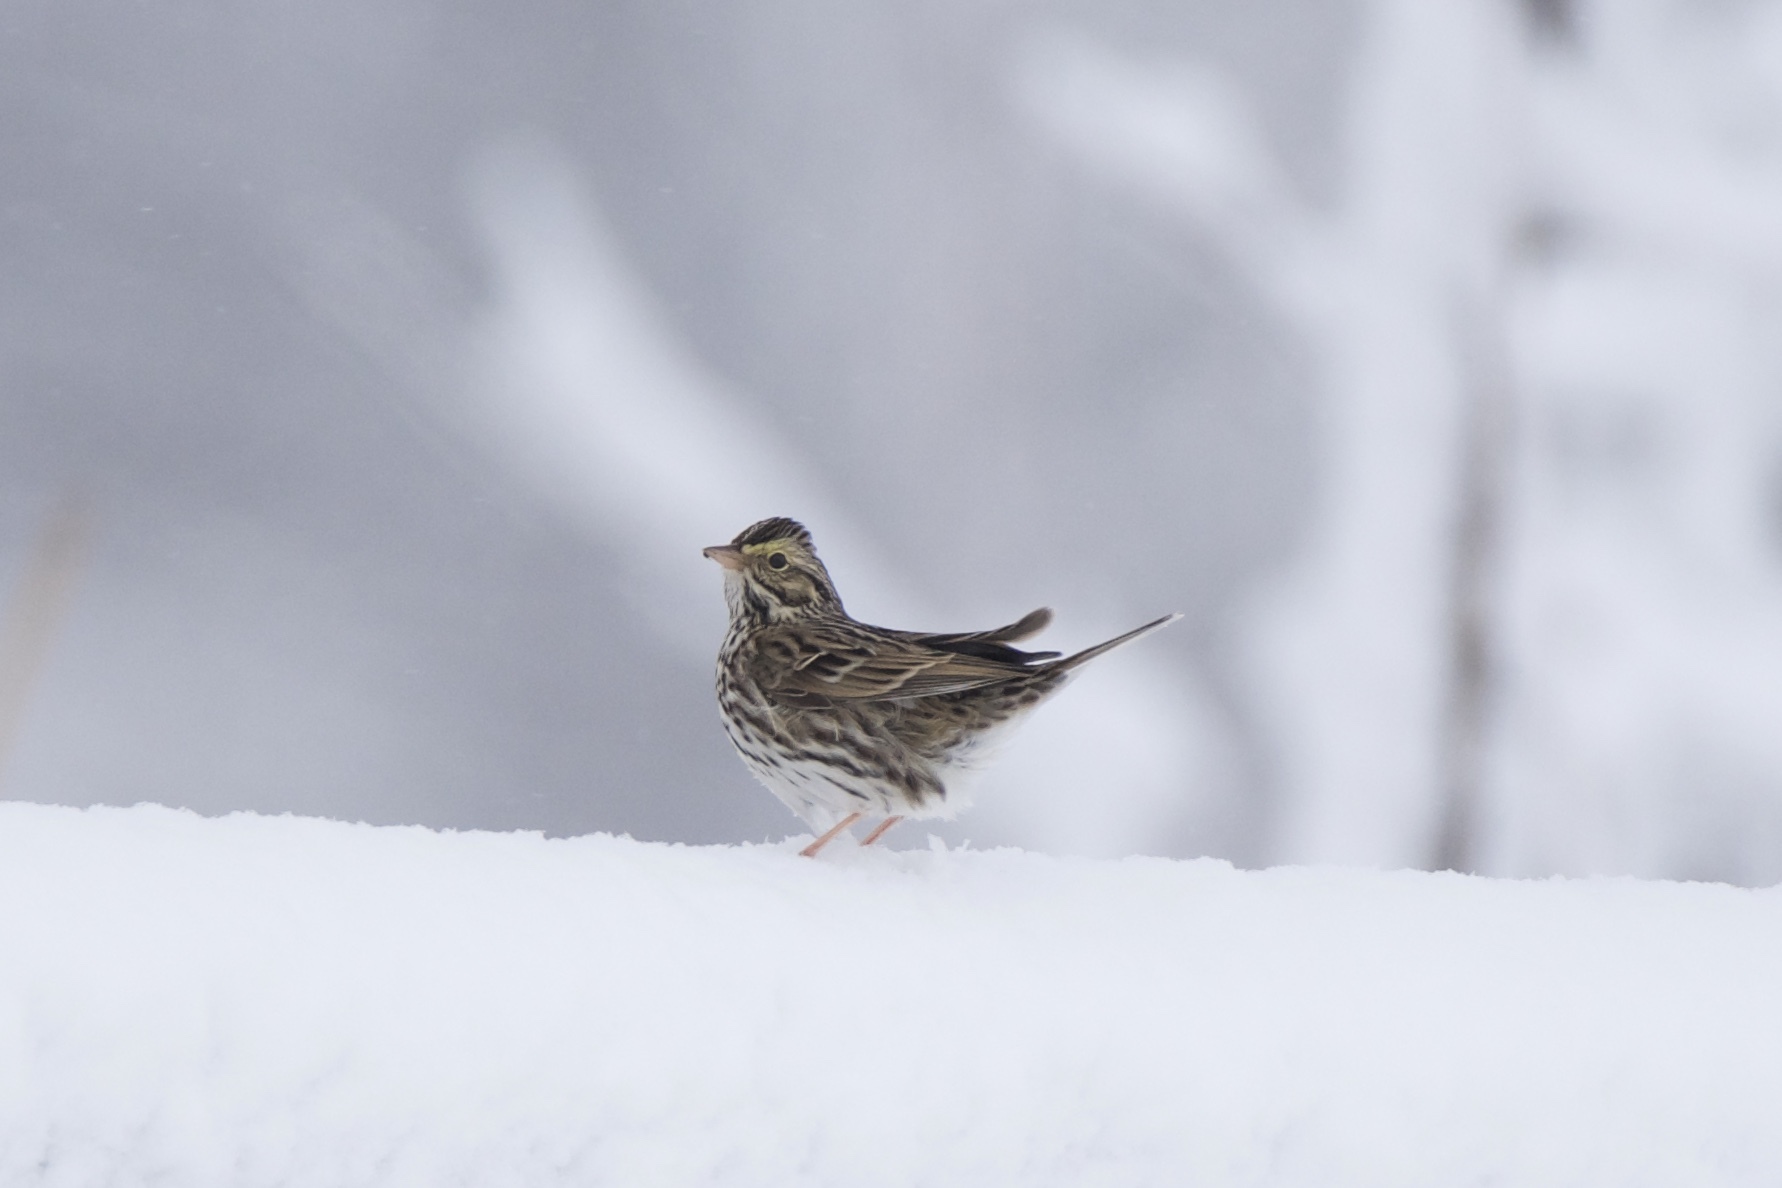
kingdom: Animalia
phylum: Chordata
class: Aves
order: Passeriformes
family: Passerellidae
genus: Passerculus
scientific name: Passerculus sandwichensis
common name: Savannah sparrow
